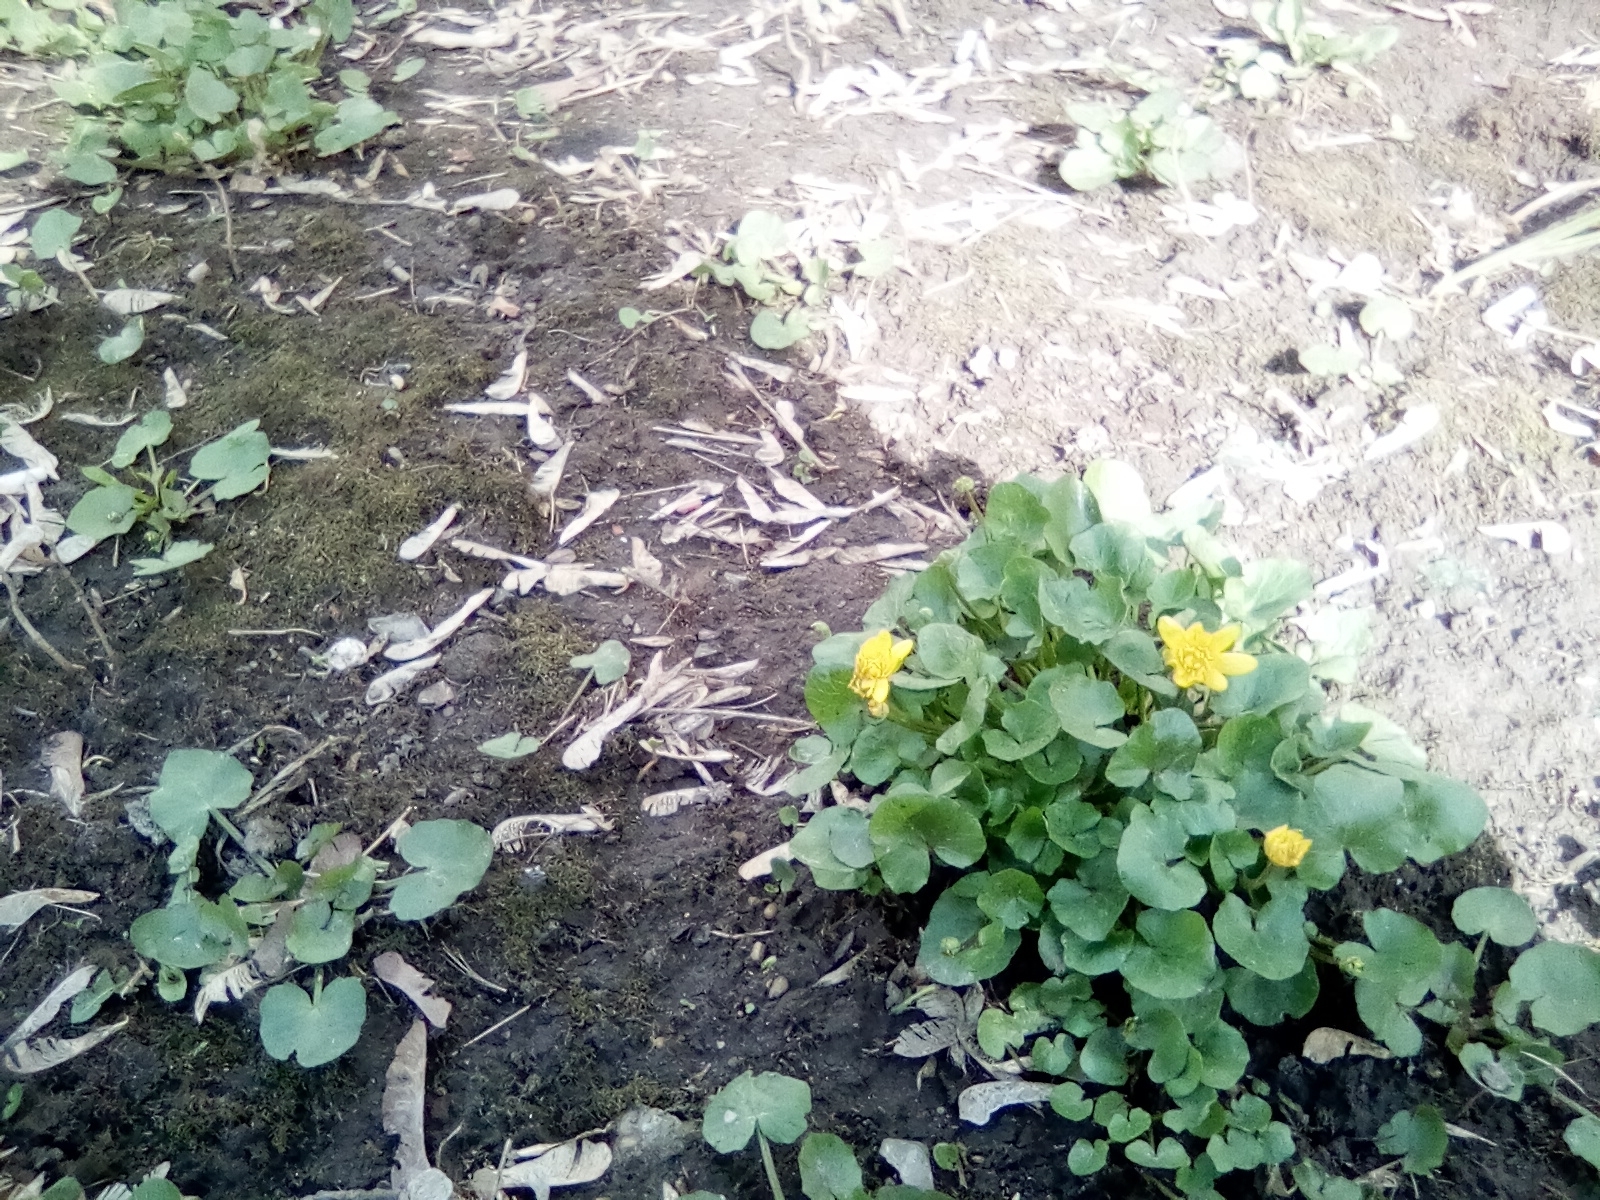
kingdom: Plantae
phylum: Tracheophyta
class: Magnoliopsida
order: Ranunculales
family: Ranunculaceae
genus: Ficaria
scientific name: Ficaria verna
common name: Lesser celandine
